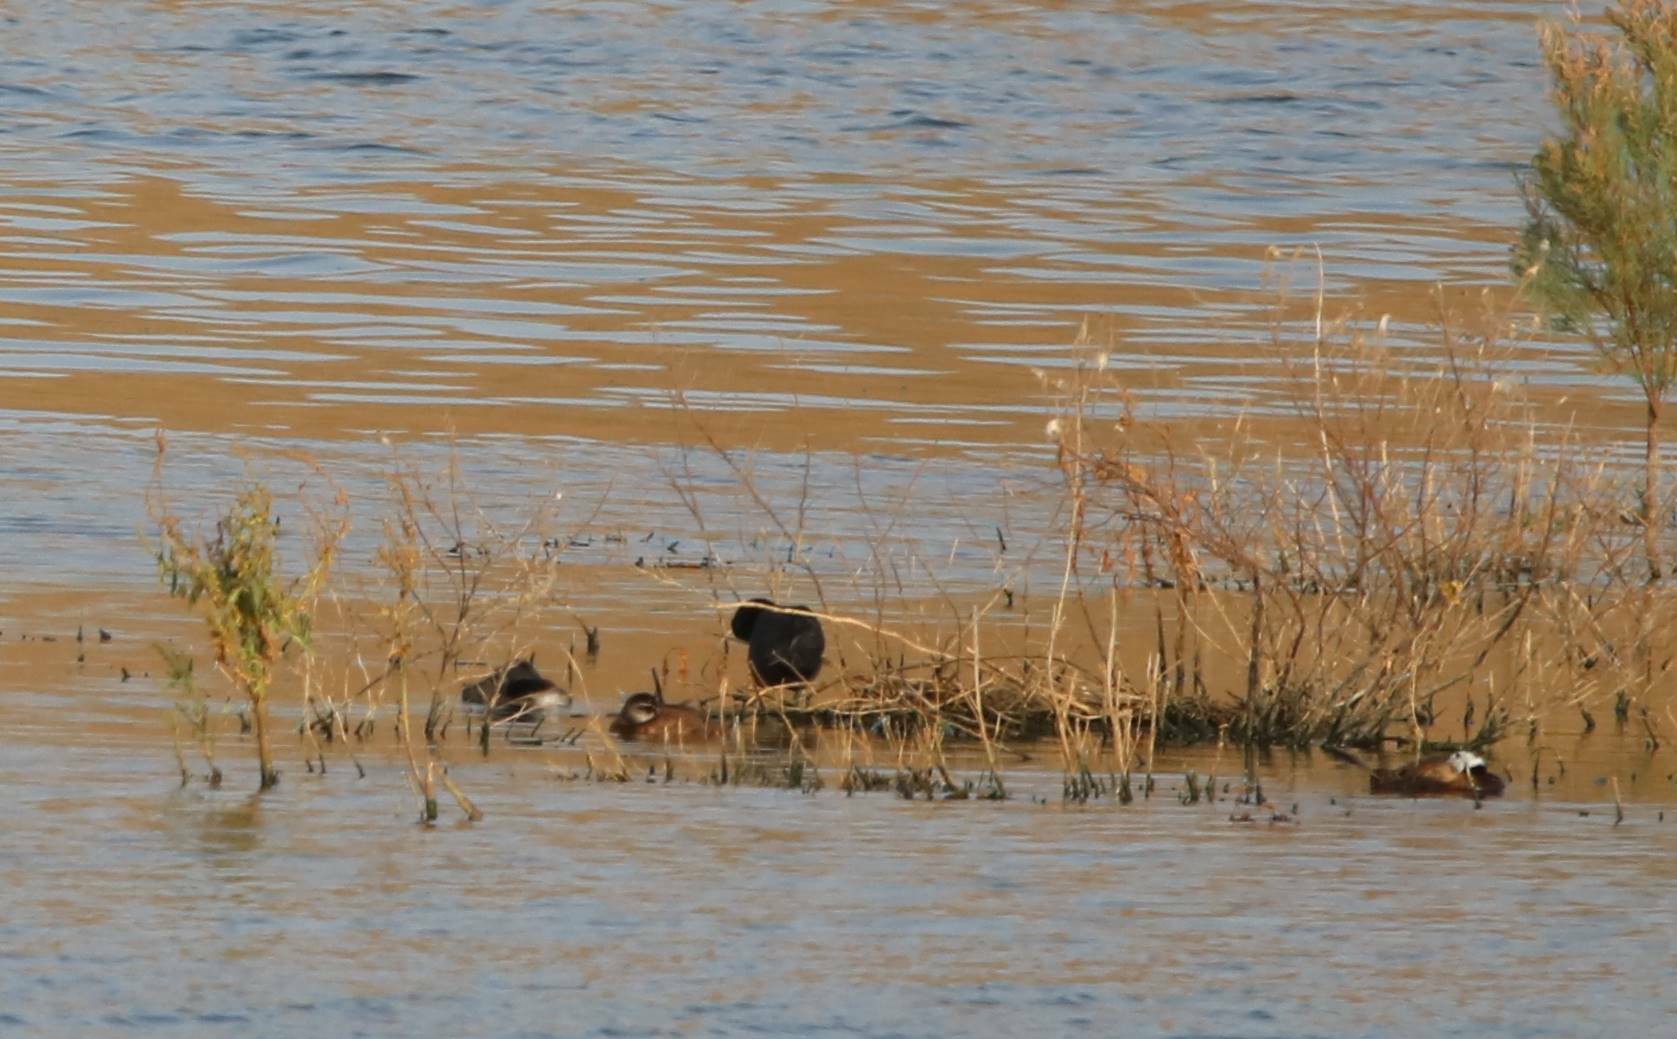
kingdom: Animalia
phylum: Chordata
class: Aves
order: Anseriformes
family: Anatidae
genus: Oxyura
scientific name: Oxyura leucocephala
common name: White-headed duck
